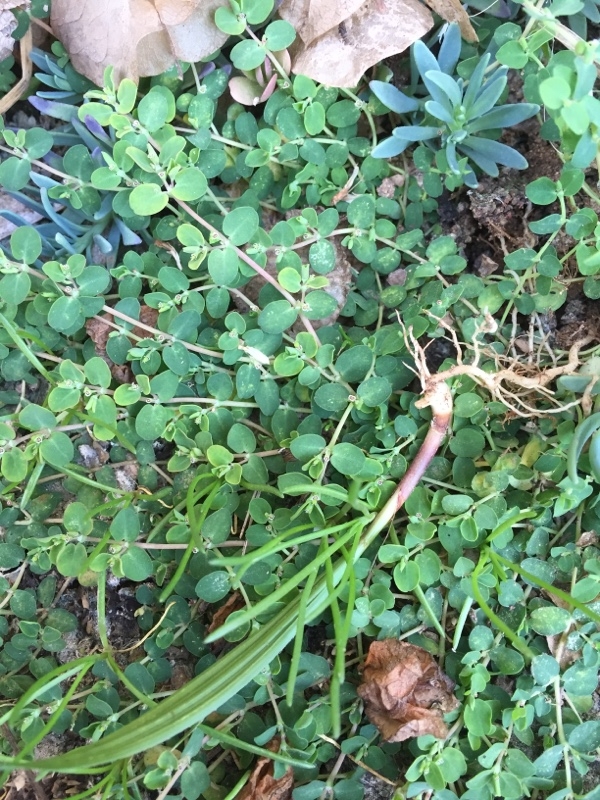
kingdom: Plantae
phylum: Tracheophyta
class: Magnoliopsida
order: Malpighiales
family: Euphorbiaceae
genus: Euphorbia
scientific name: Euphorbia serpens
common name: Matted sandmat
